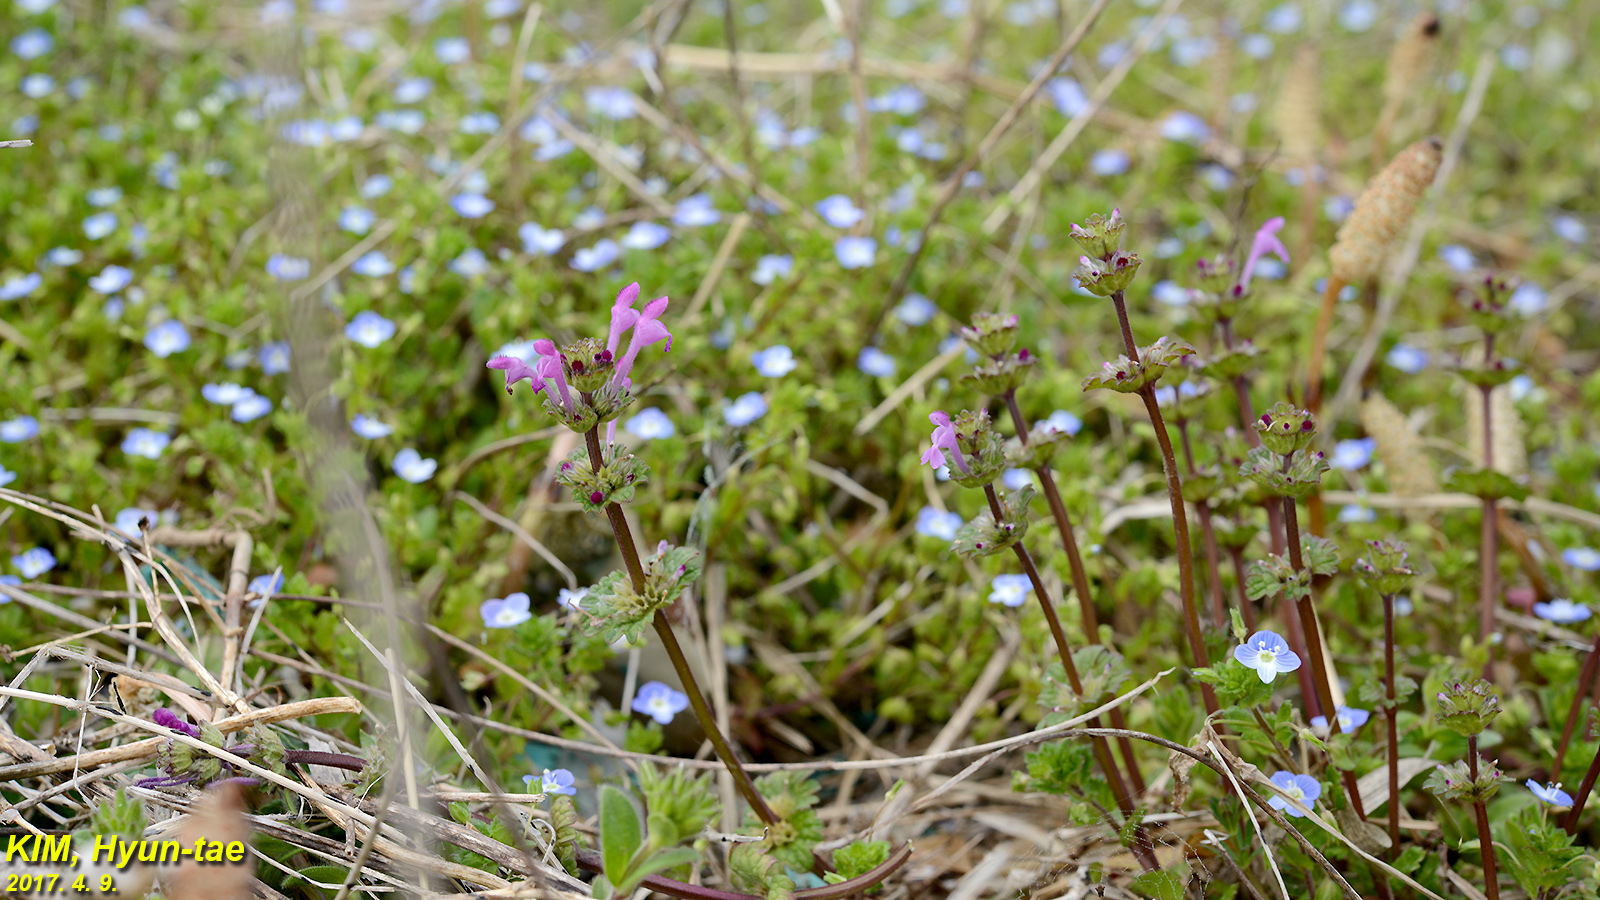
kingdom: Plantae
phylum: Tracheophyta
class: Magnoliopsida
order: Lamiales
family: Lamiaceae
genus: Lamium
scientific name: Lamium amplexicaule
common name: Henbit dead-nettle
